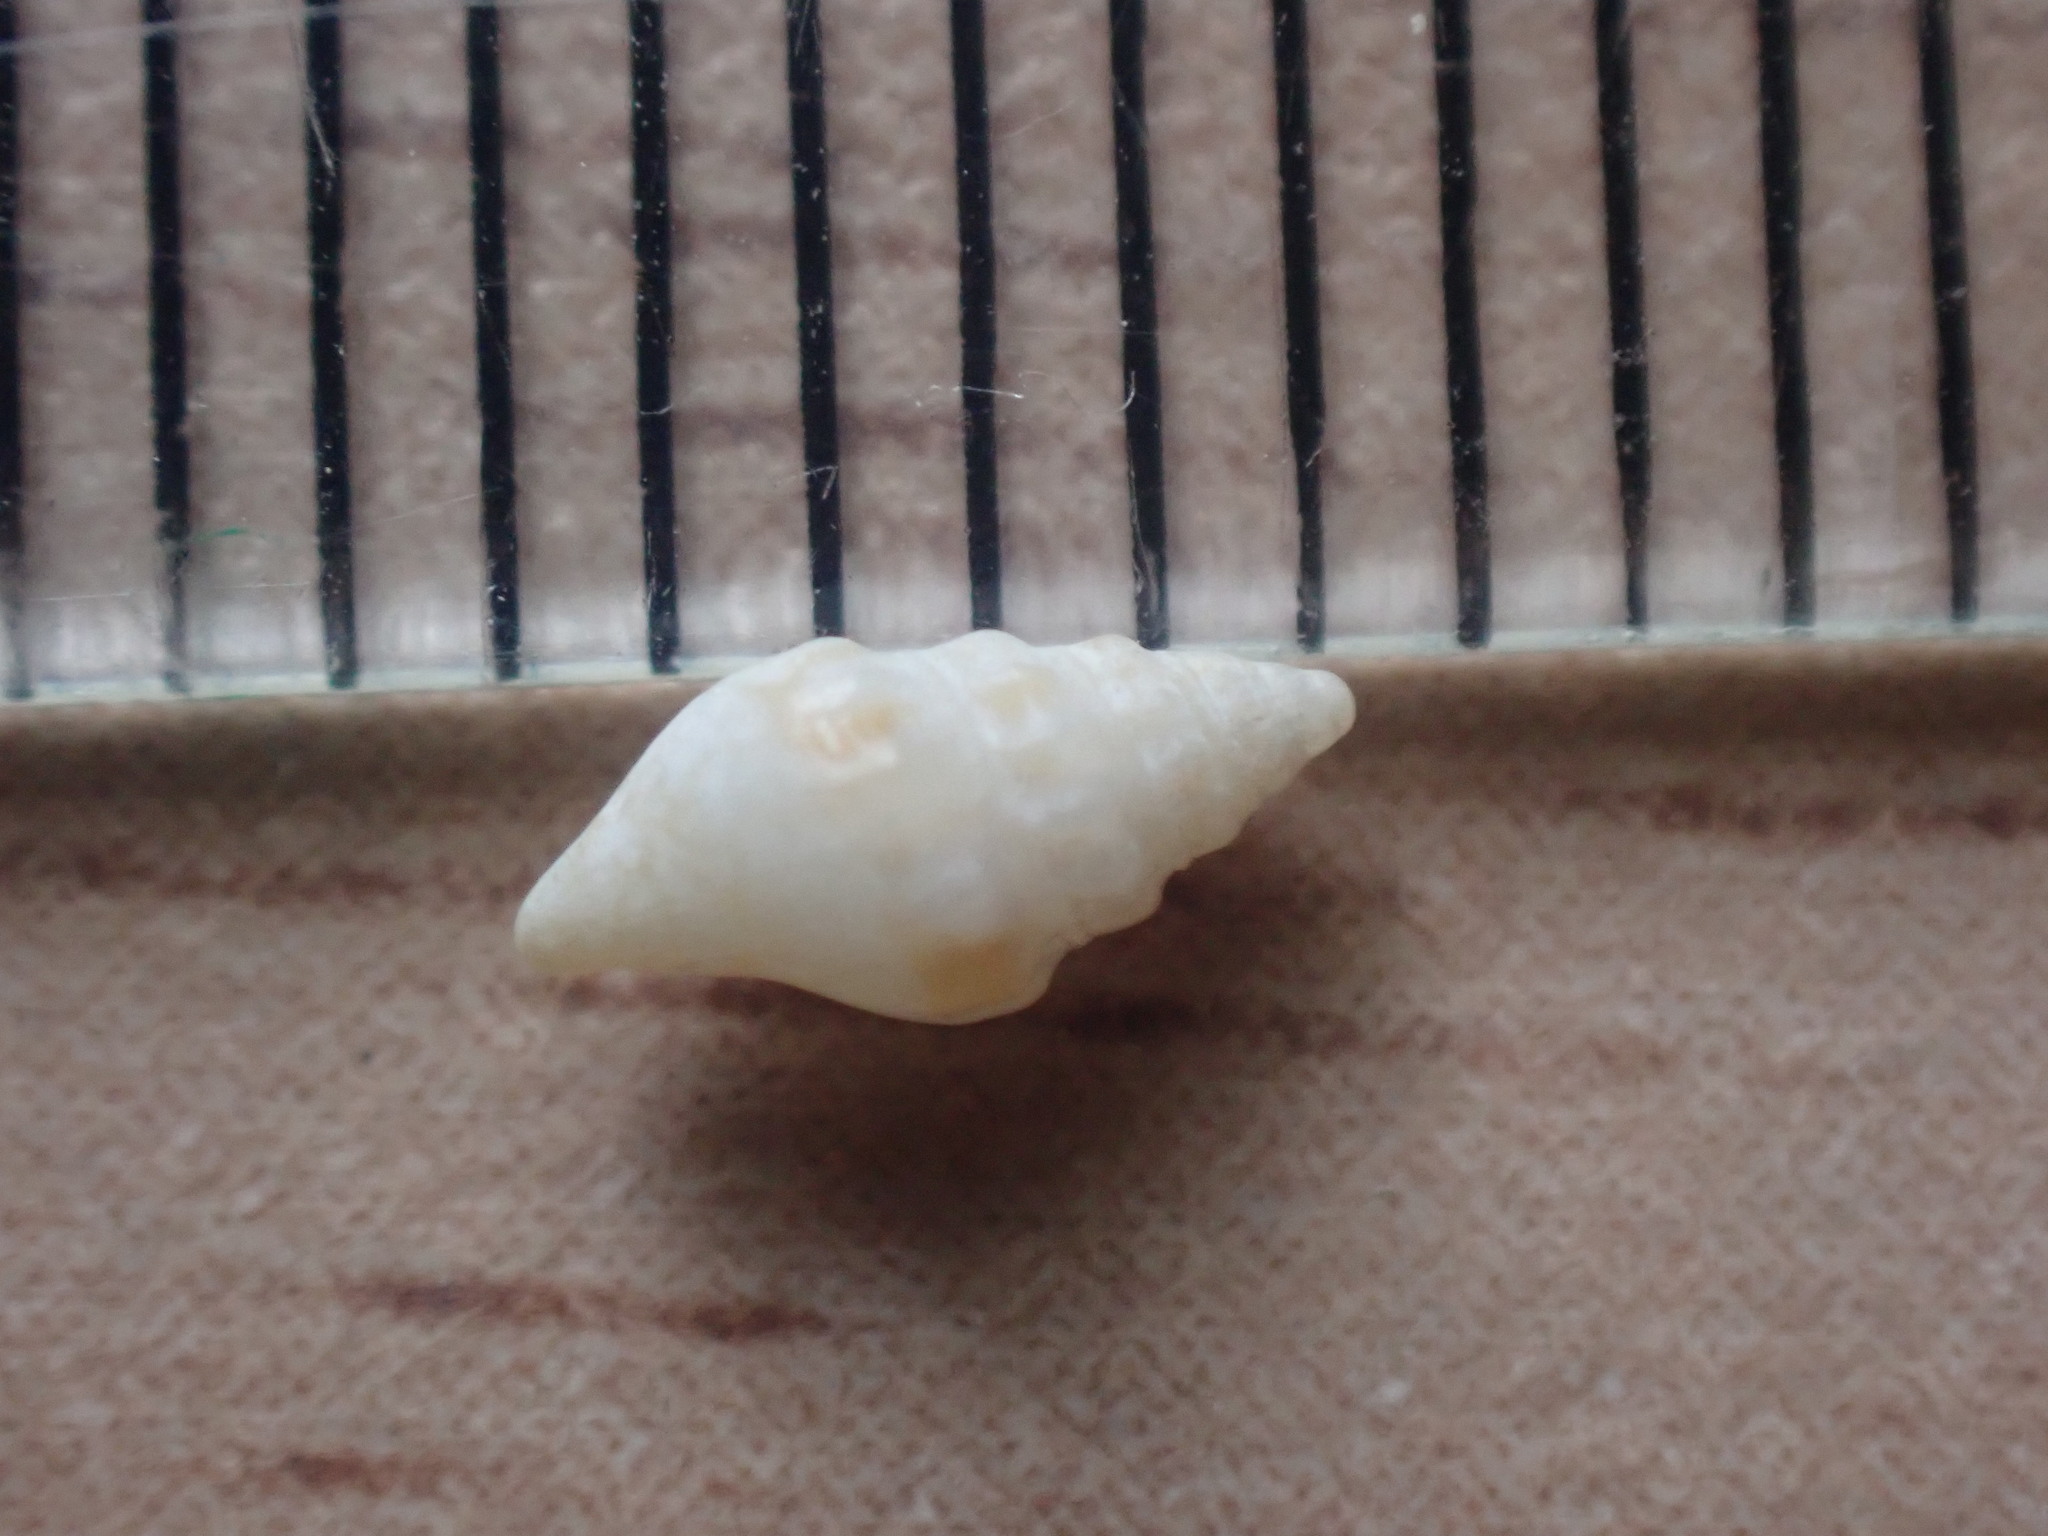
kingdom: Animalia
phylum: Mollusca
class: Gastropoda
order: Neogastropoda
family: Volutomitridae
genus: Microvoluta
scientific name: Microvoluta marginata
